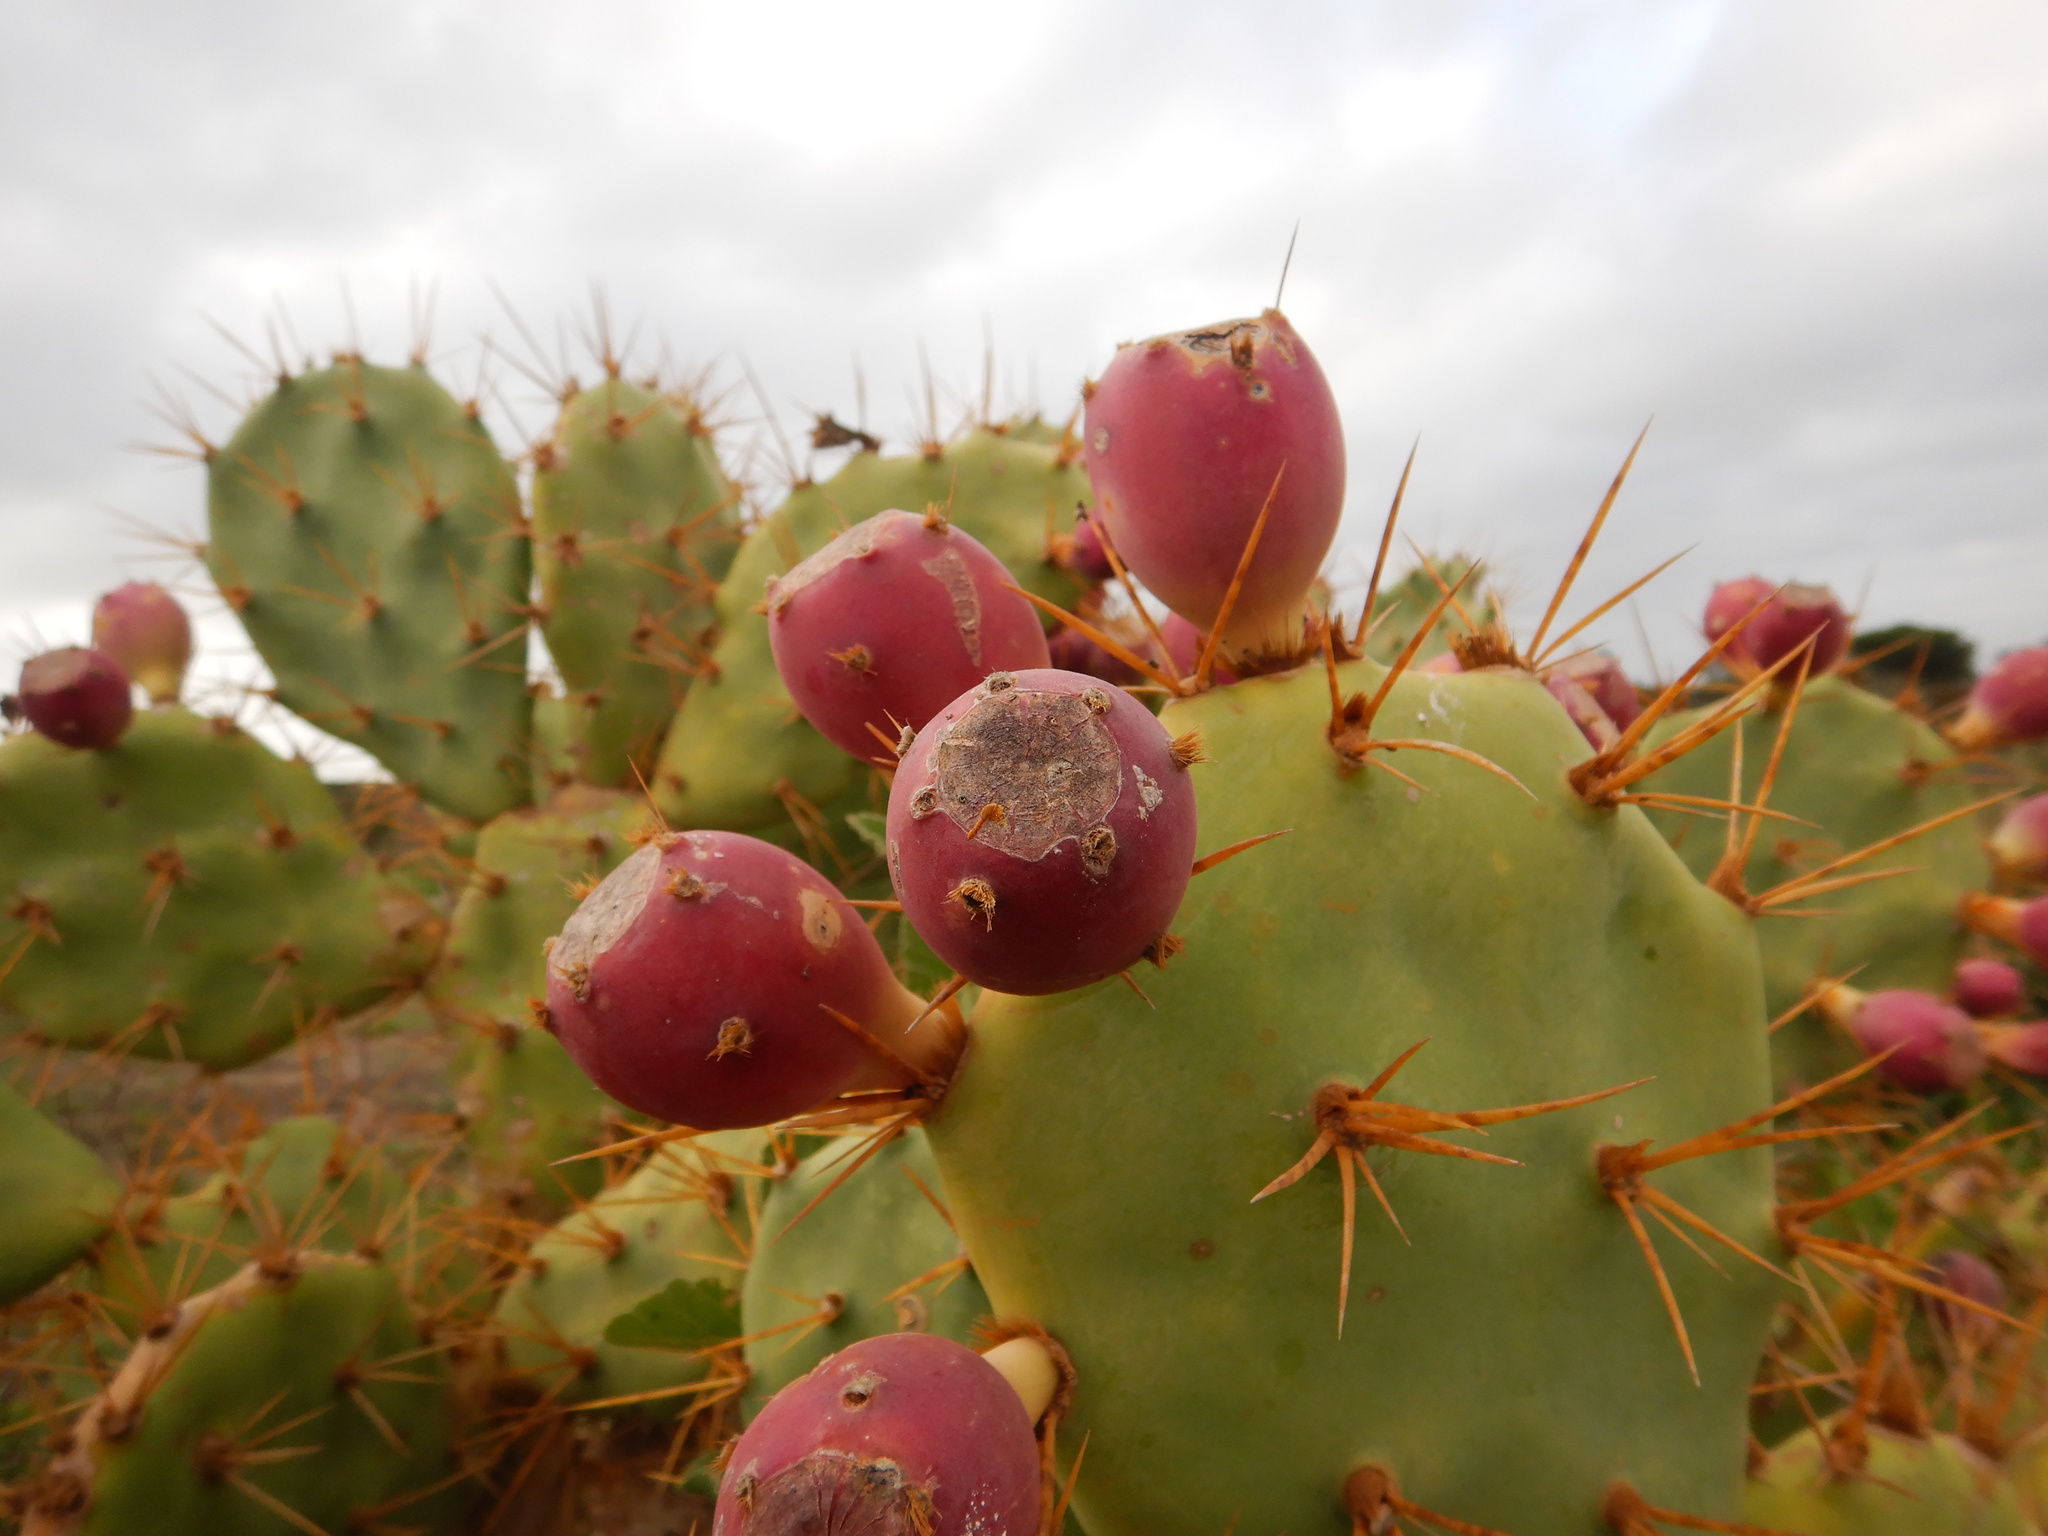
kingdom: Plantae
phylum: Tracheophyta
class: Magnoliopsida
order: Caryophyllales
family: Cactaceae
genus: Opuntia
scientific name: Opuntia stricta
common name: Erect pricklypear
